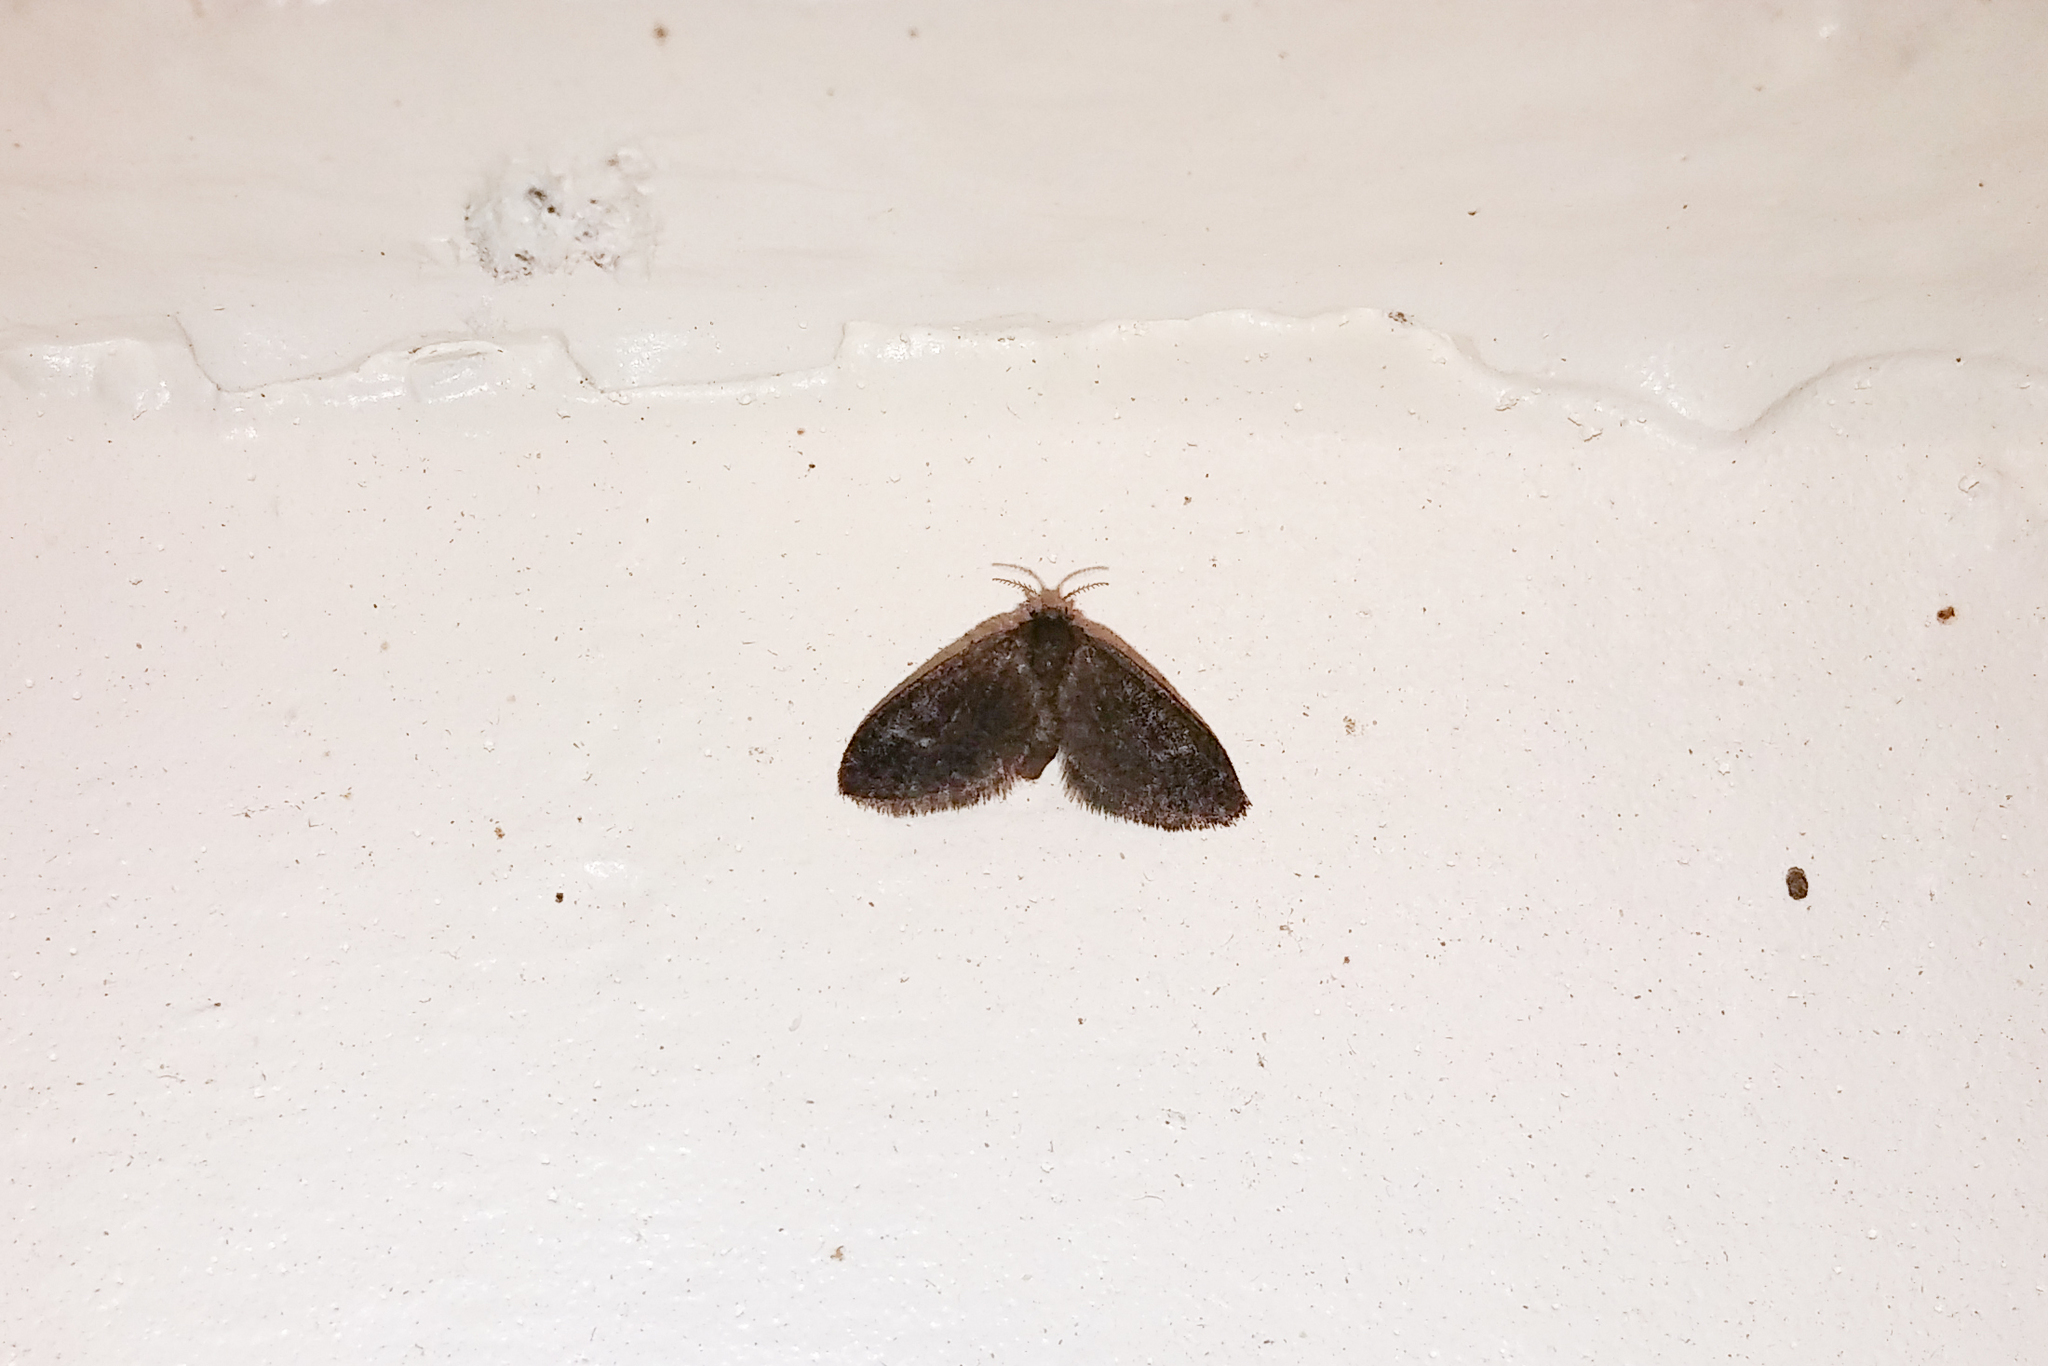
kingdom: Animalia
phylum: Arthropoda
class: Insecta
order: Lepidoptera
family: Epipyropidae
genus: Fulgoraecia
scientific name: Fulgoraecia exigua
